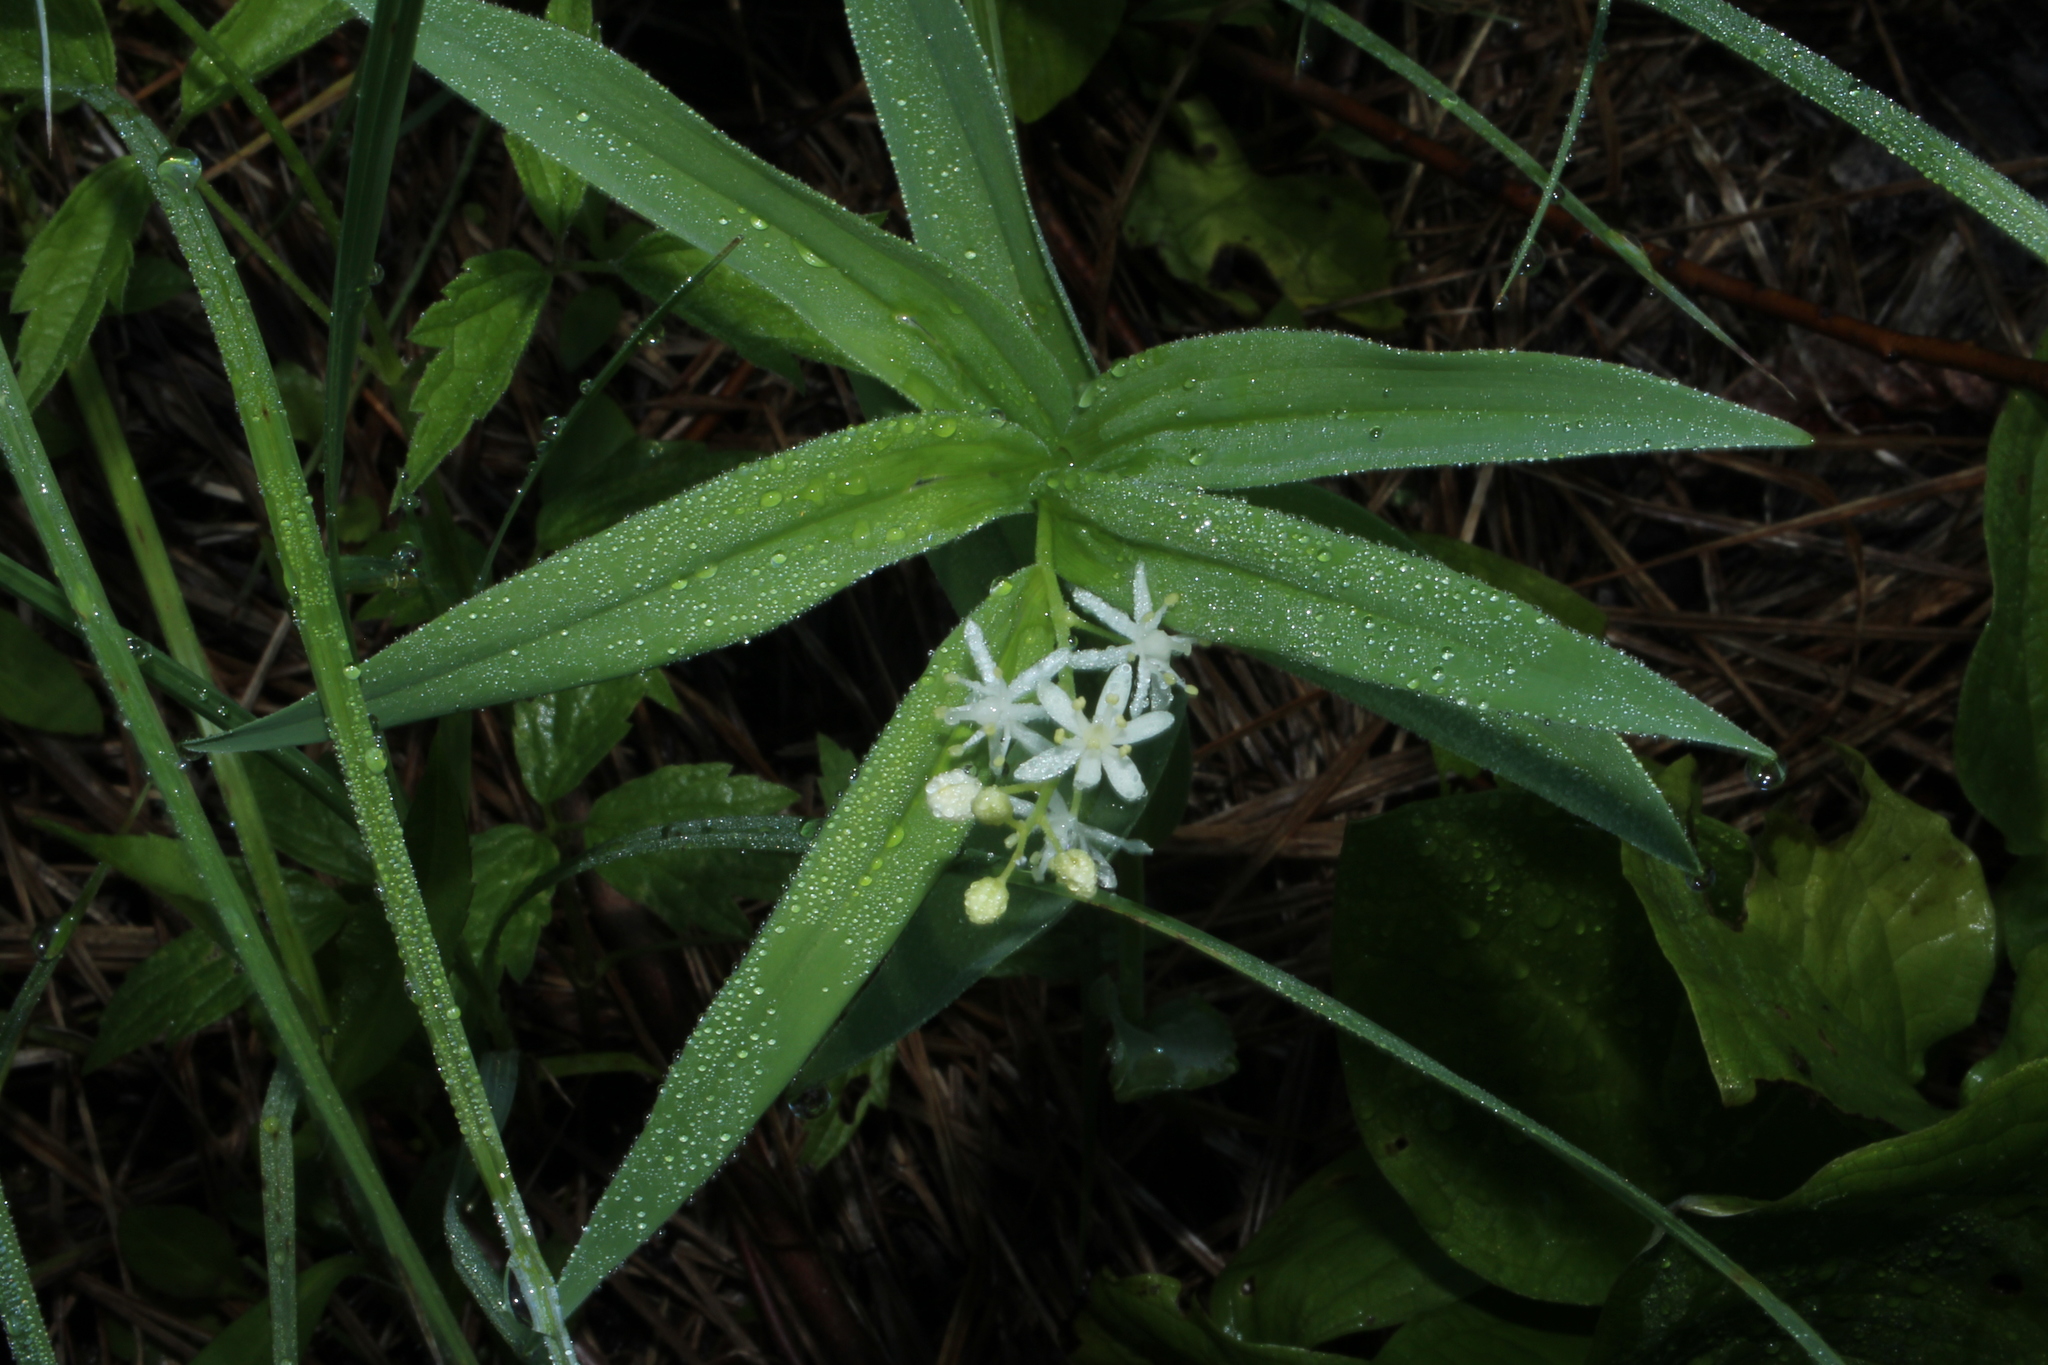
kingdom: Plantae
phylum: Tracheophyta
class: Liliopsida
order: Asparagales
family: Asparagaceae
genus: Maianthemum
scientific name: Maianthemum stellatum
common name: Little false solomon's seal
